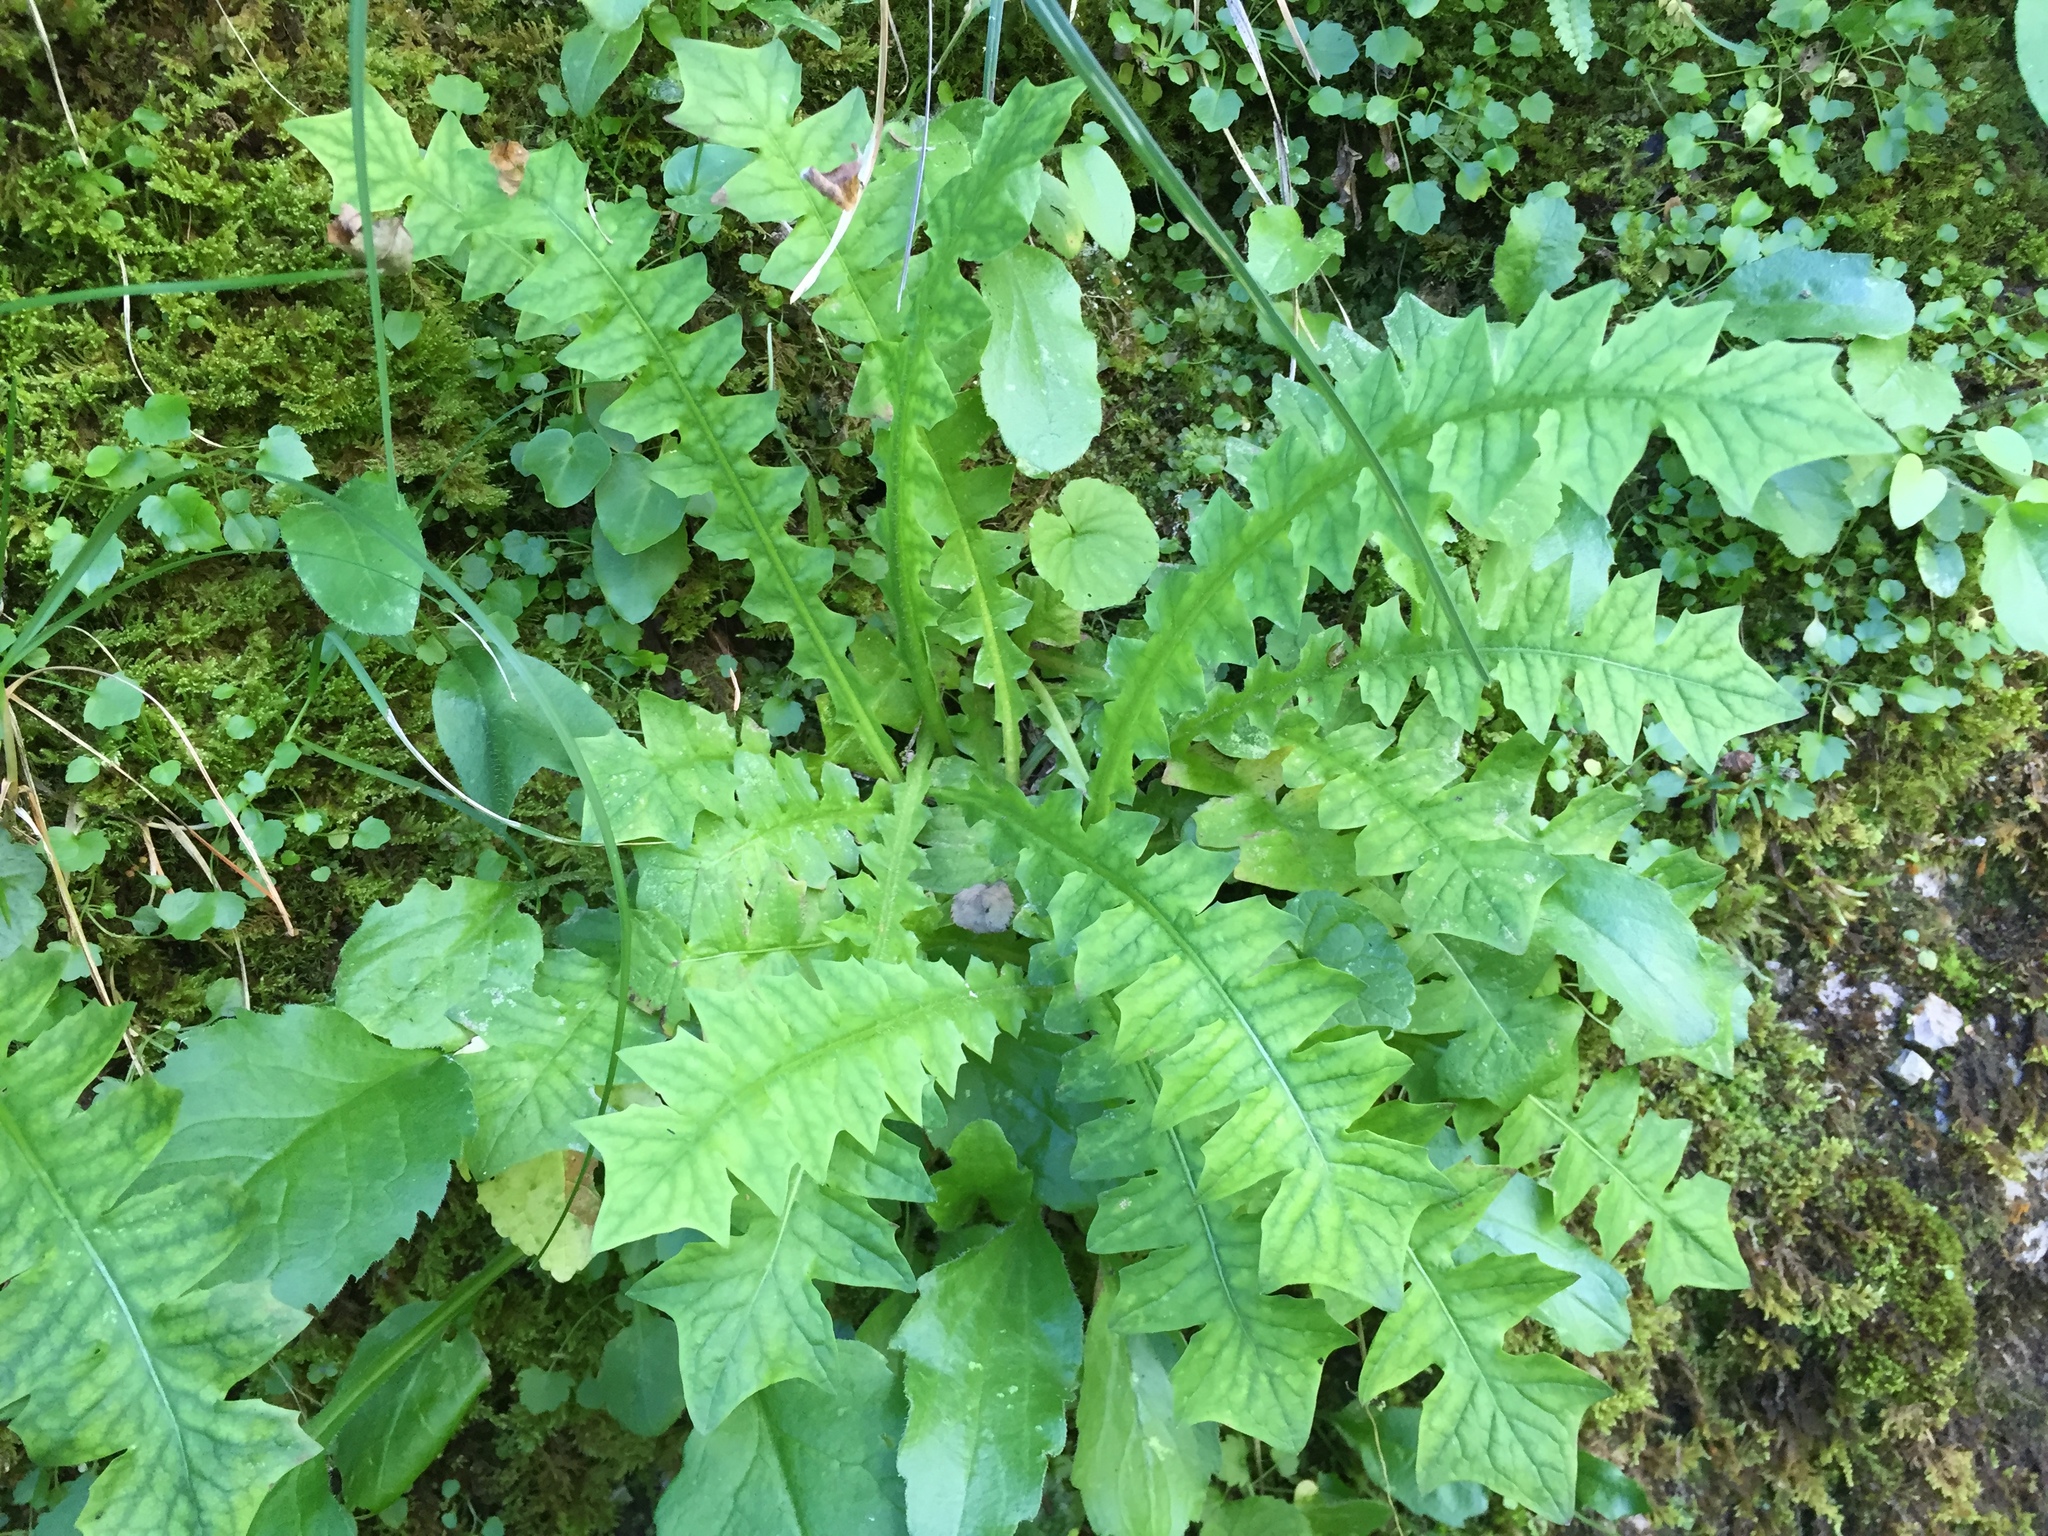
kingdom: Plantae
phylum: Tracheophyta
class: Magnoliopsida
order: Asterales
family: Asteraceae
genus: Aposeris
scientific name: Aposeris foetida
